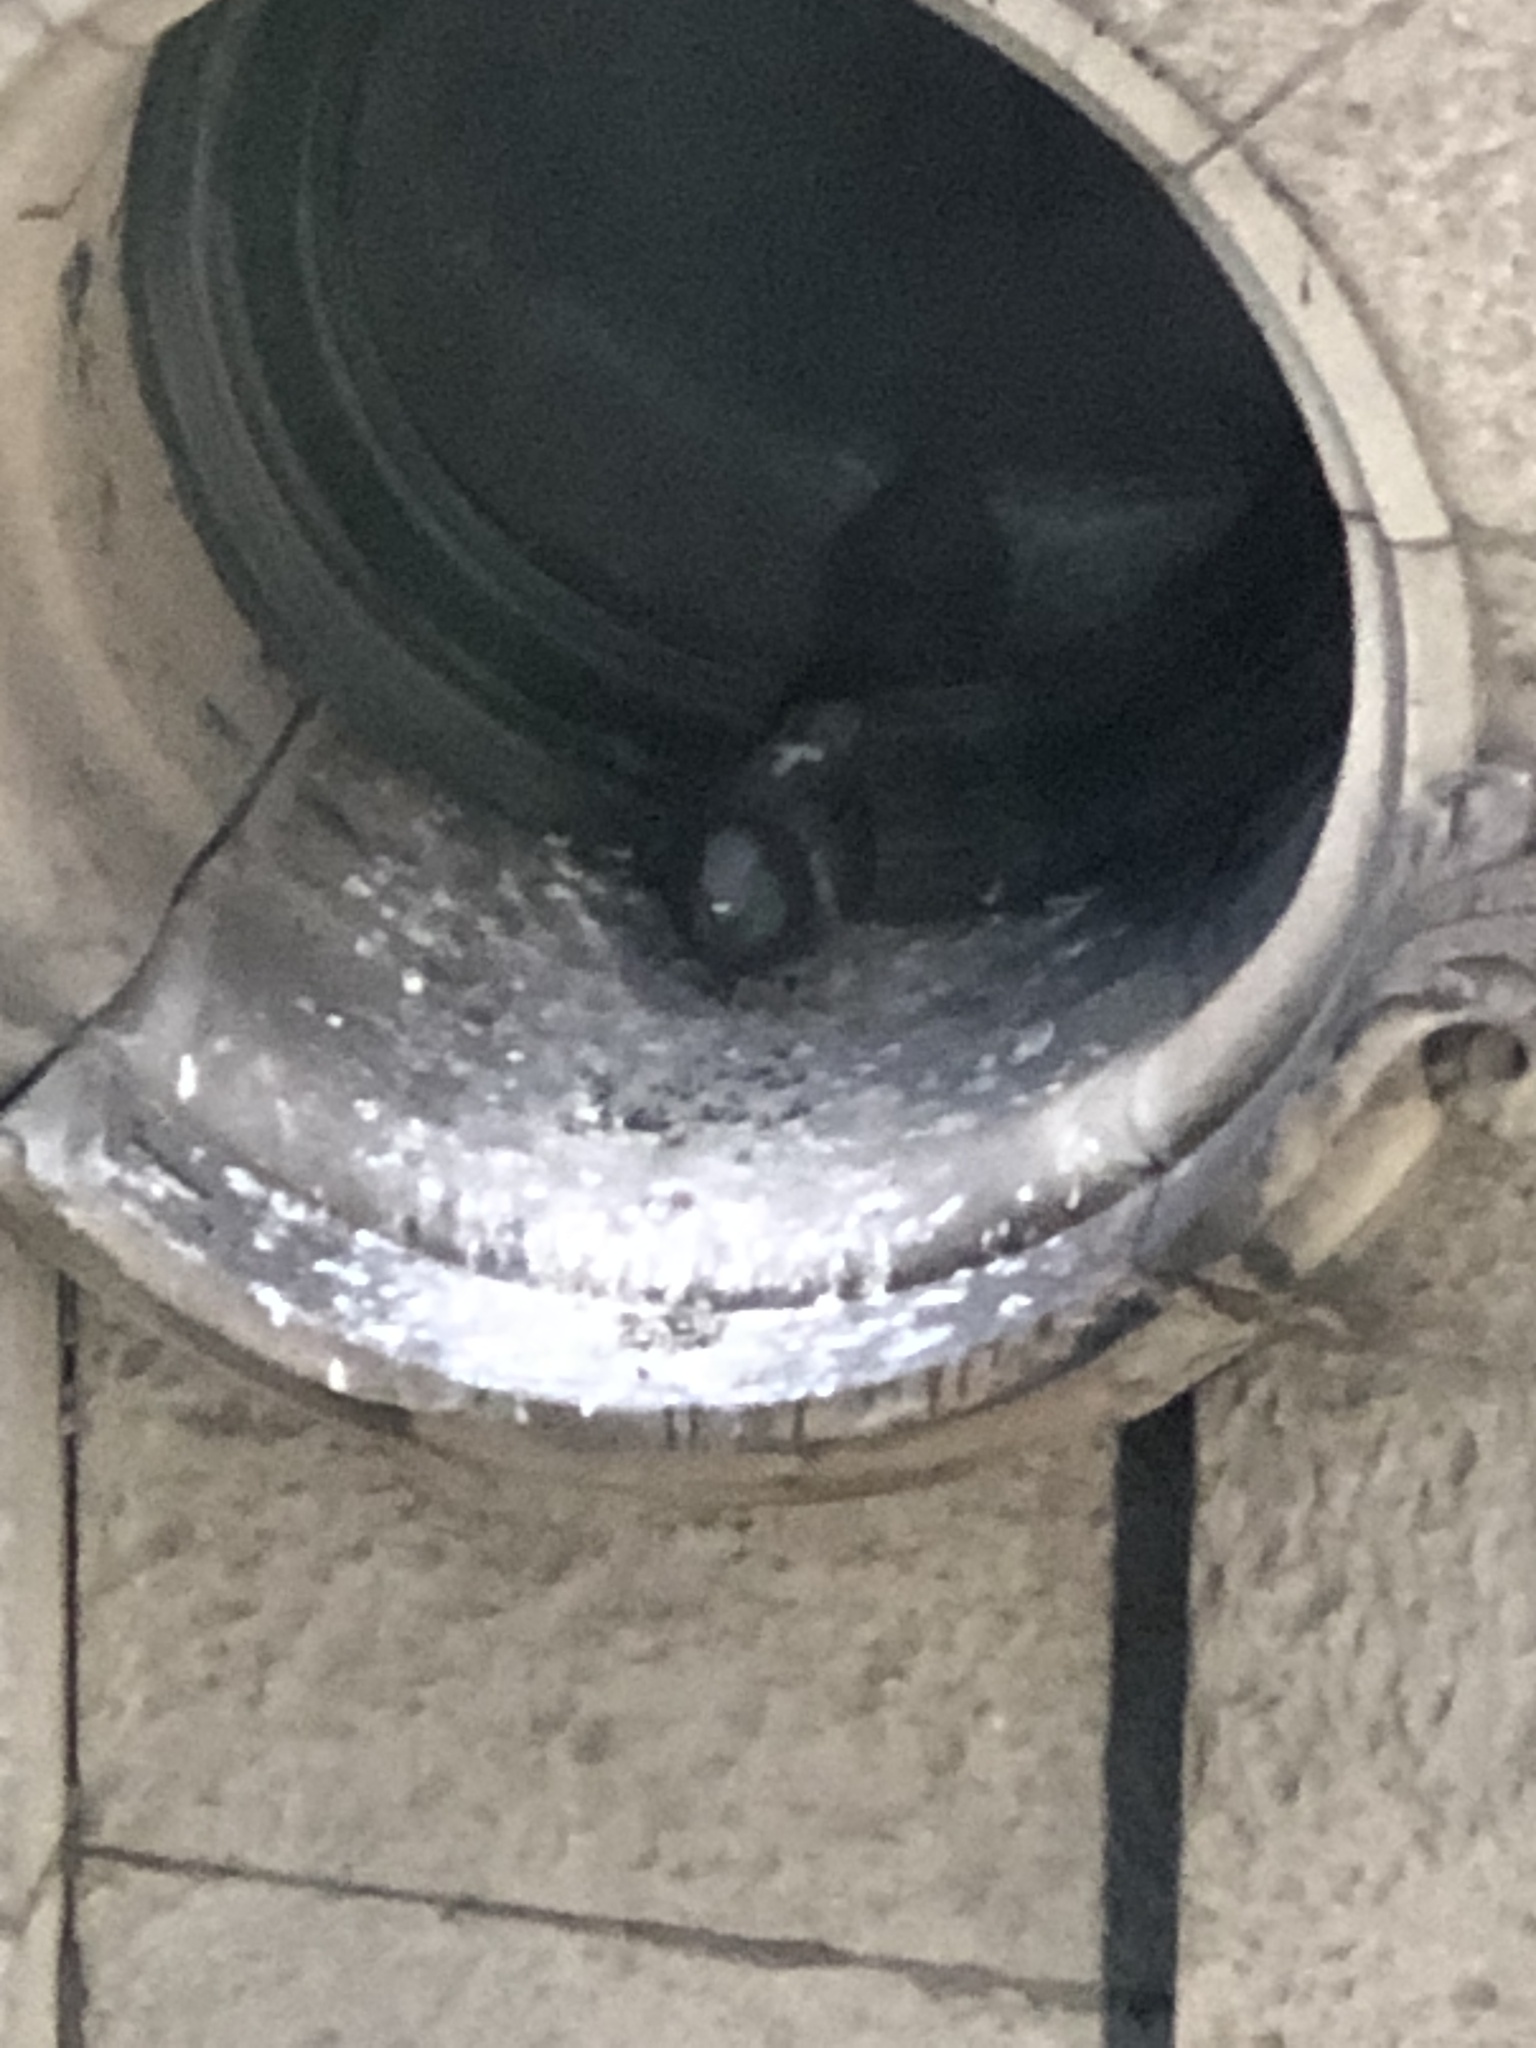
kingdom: Animalia
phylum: Chordata
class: Aves
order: Columbiformes
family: Columbidae
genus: Columba
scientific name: Columba livia
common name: Rock pigeon
